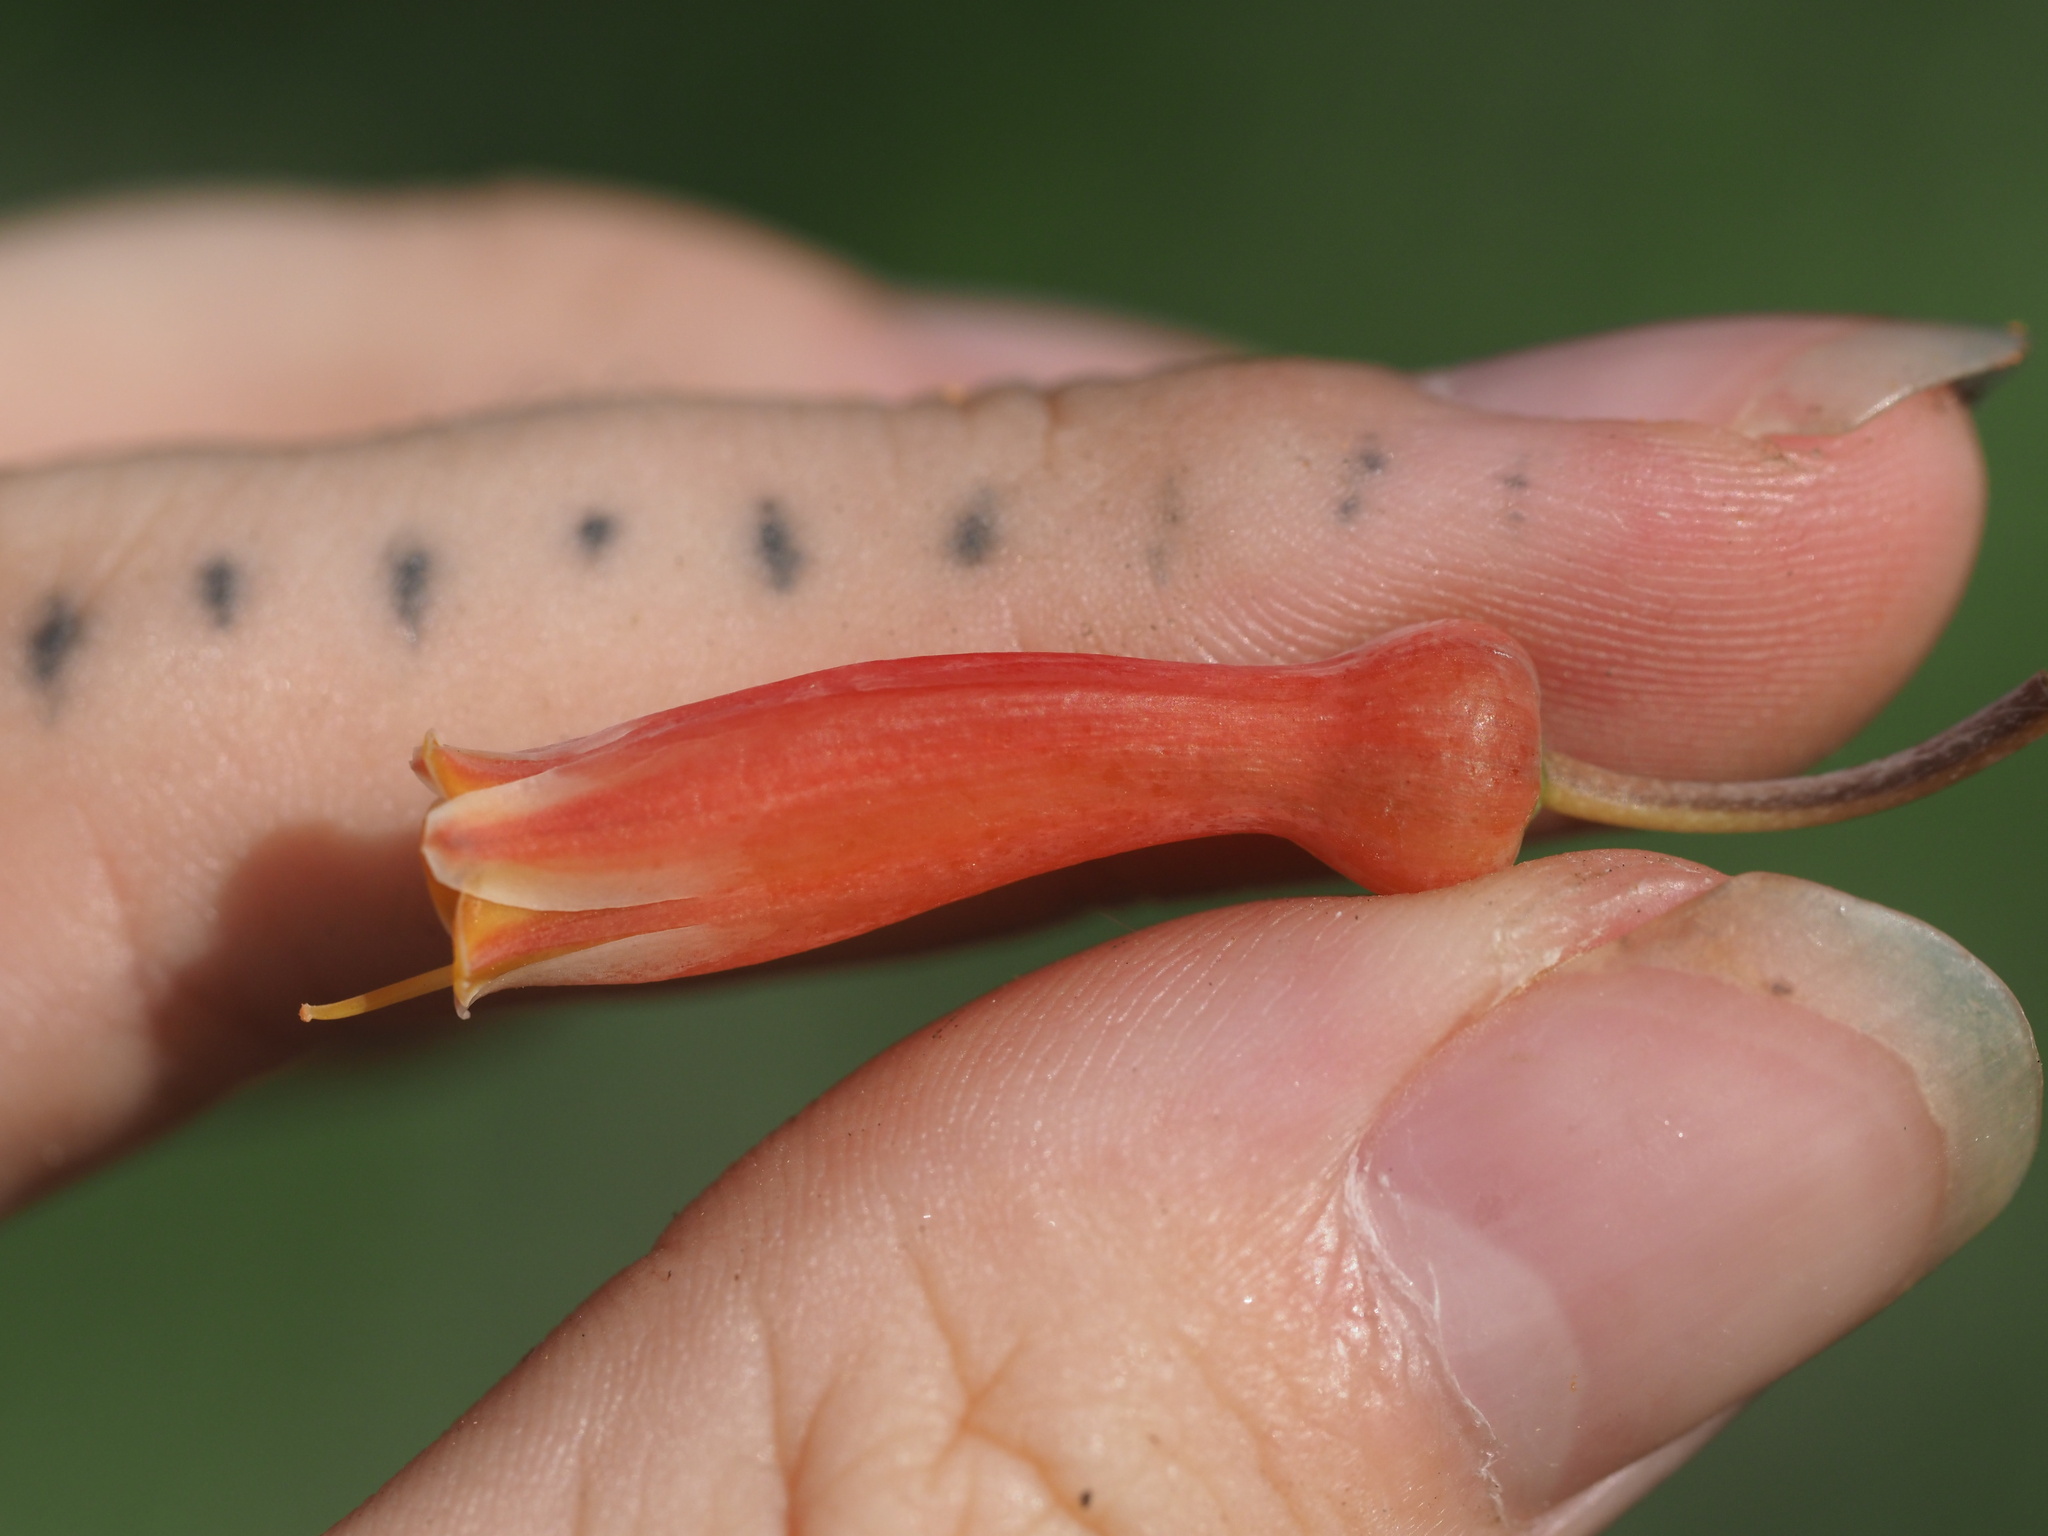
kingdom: Plantae
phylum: Tracheophyta
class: Liliopsida
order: Asparagales
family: Asphodelaceae
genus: Aloe
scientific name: Aloe grandidentata
